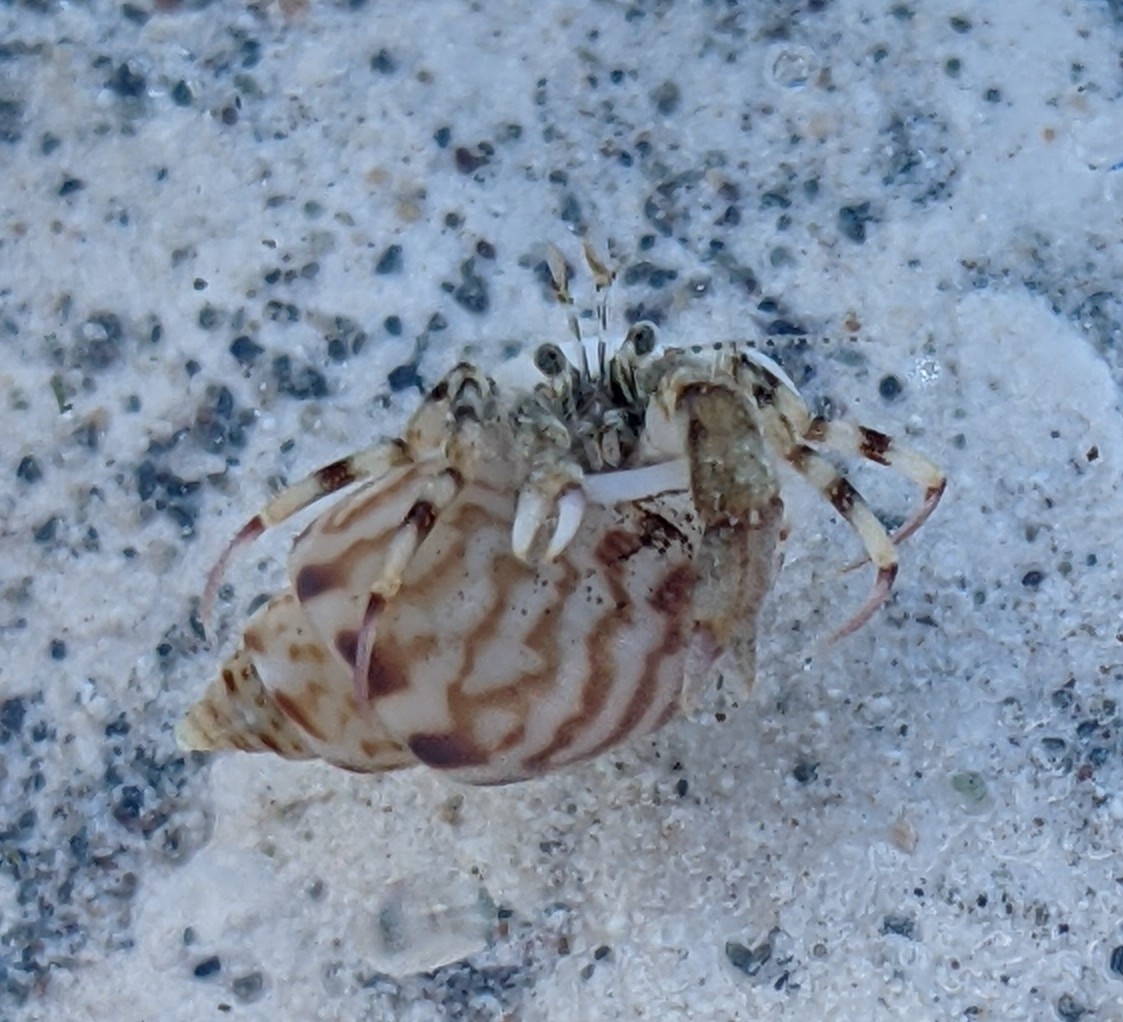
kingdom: Animalia
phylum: Arthropoda
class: Malacostraca
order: Decapoda
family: Diogenidae
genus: Diogenes
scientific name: Diogenes pugilator
